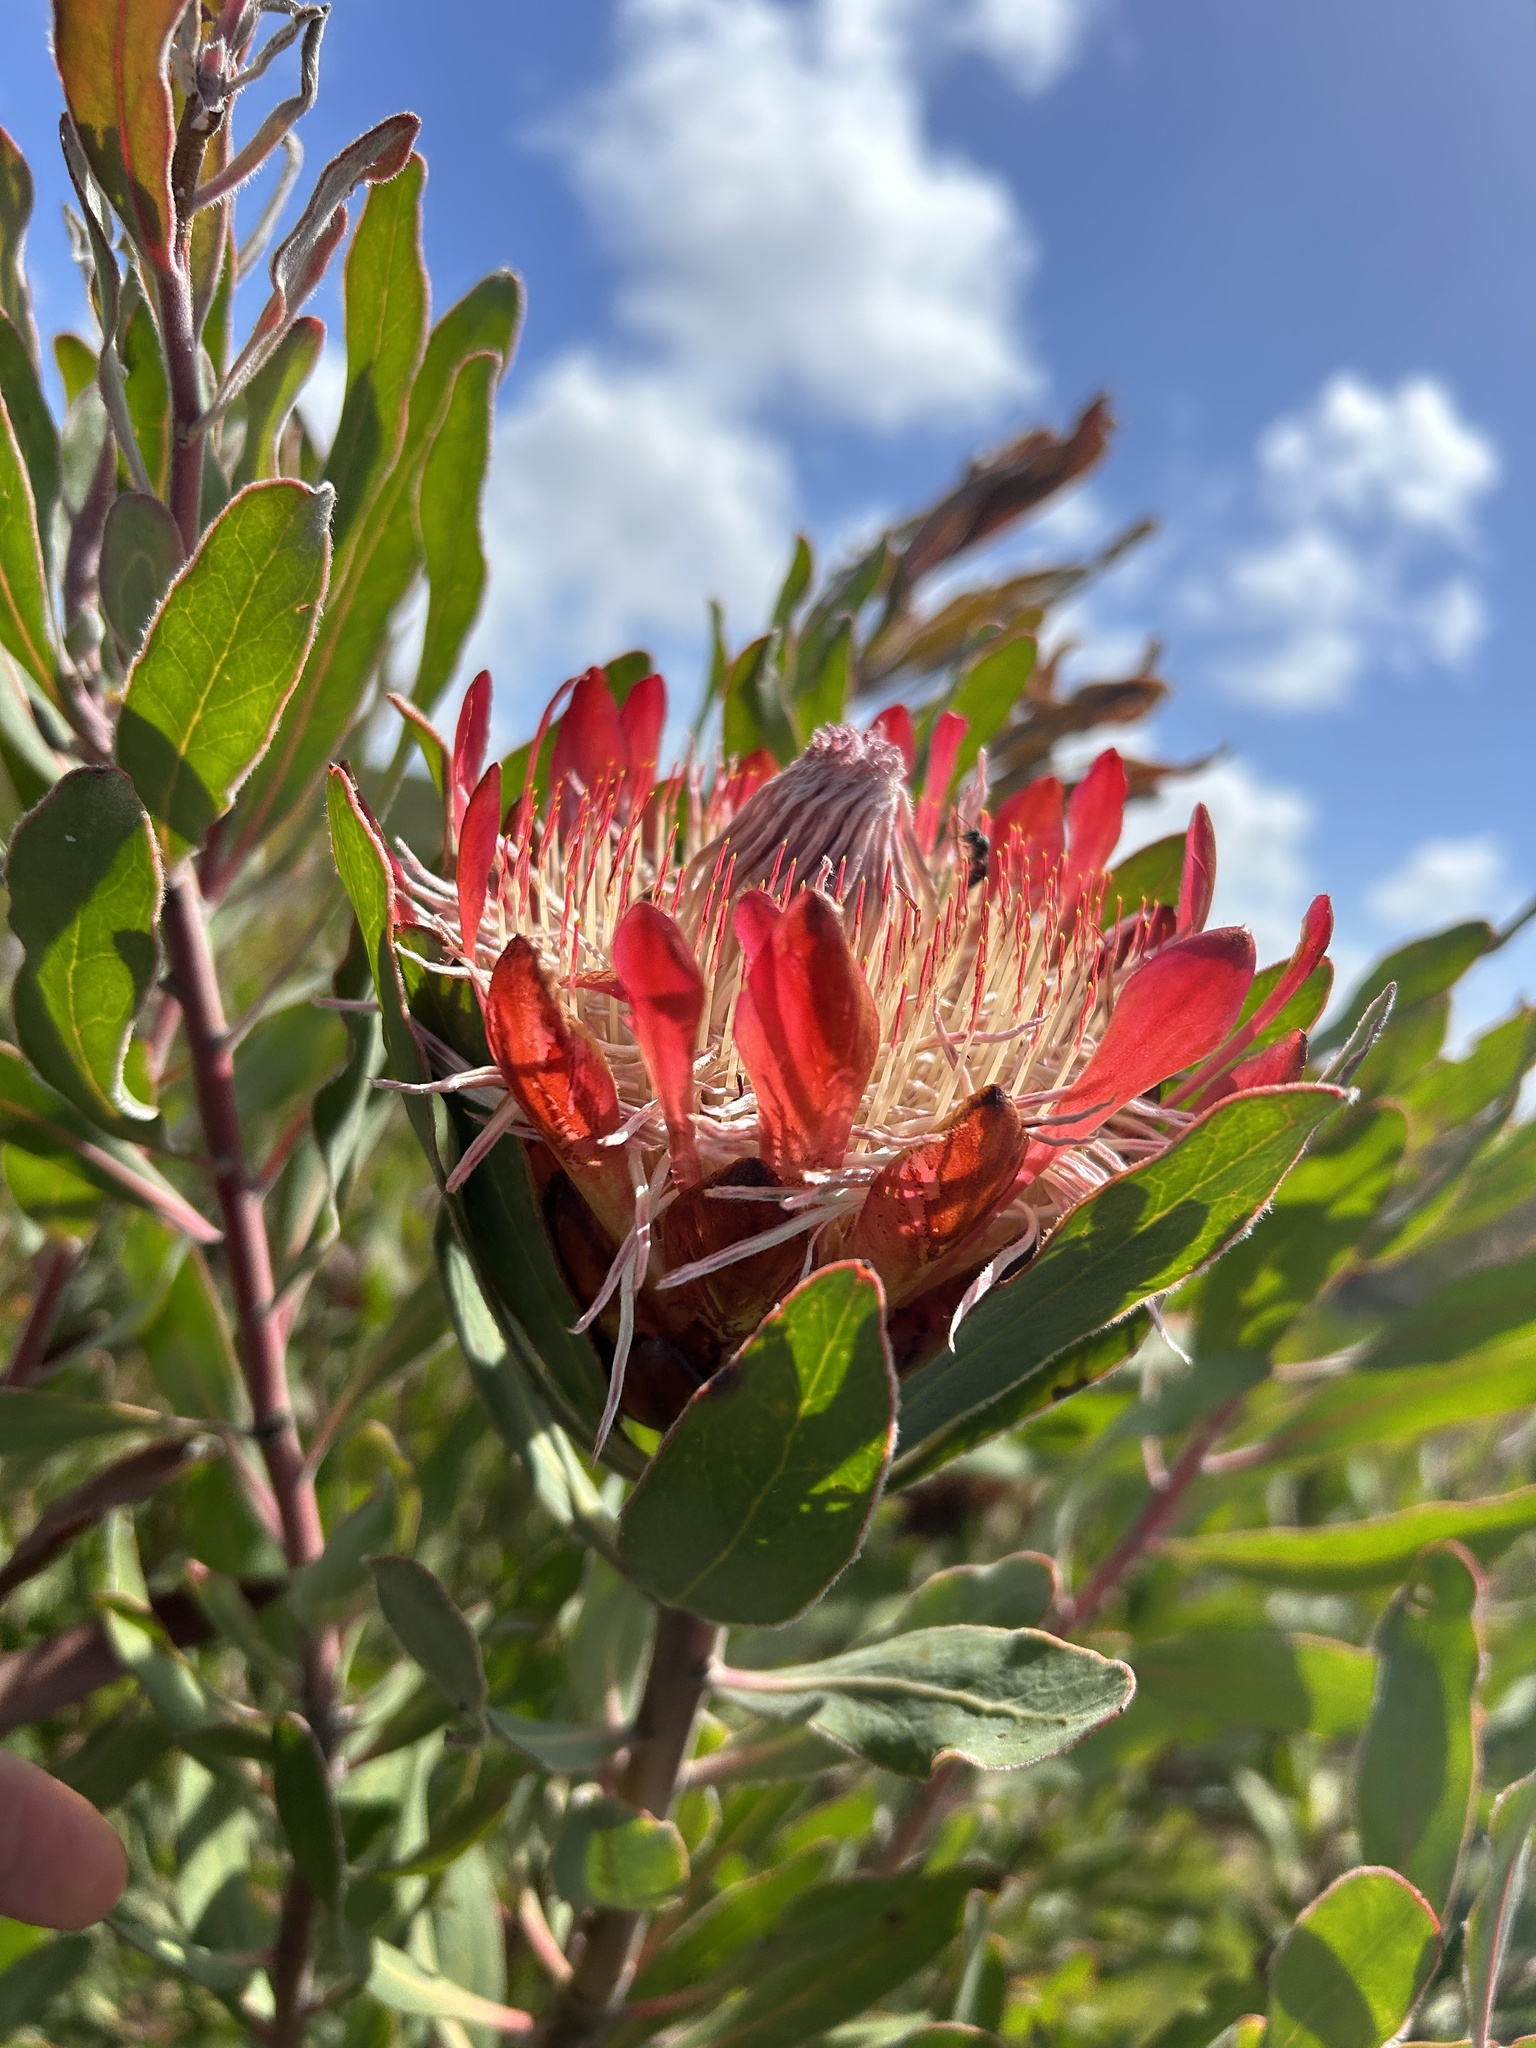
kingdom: Plantae
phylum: Tracheophyta
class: Magnoliopsida
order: Proteales
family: Proteaceae
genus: Protea
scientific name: Protea susannae
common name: Foetid-leaf sugarbush
